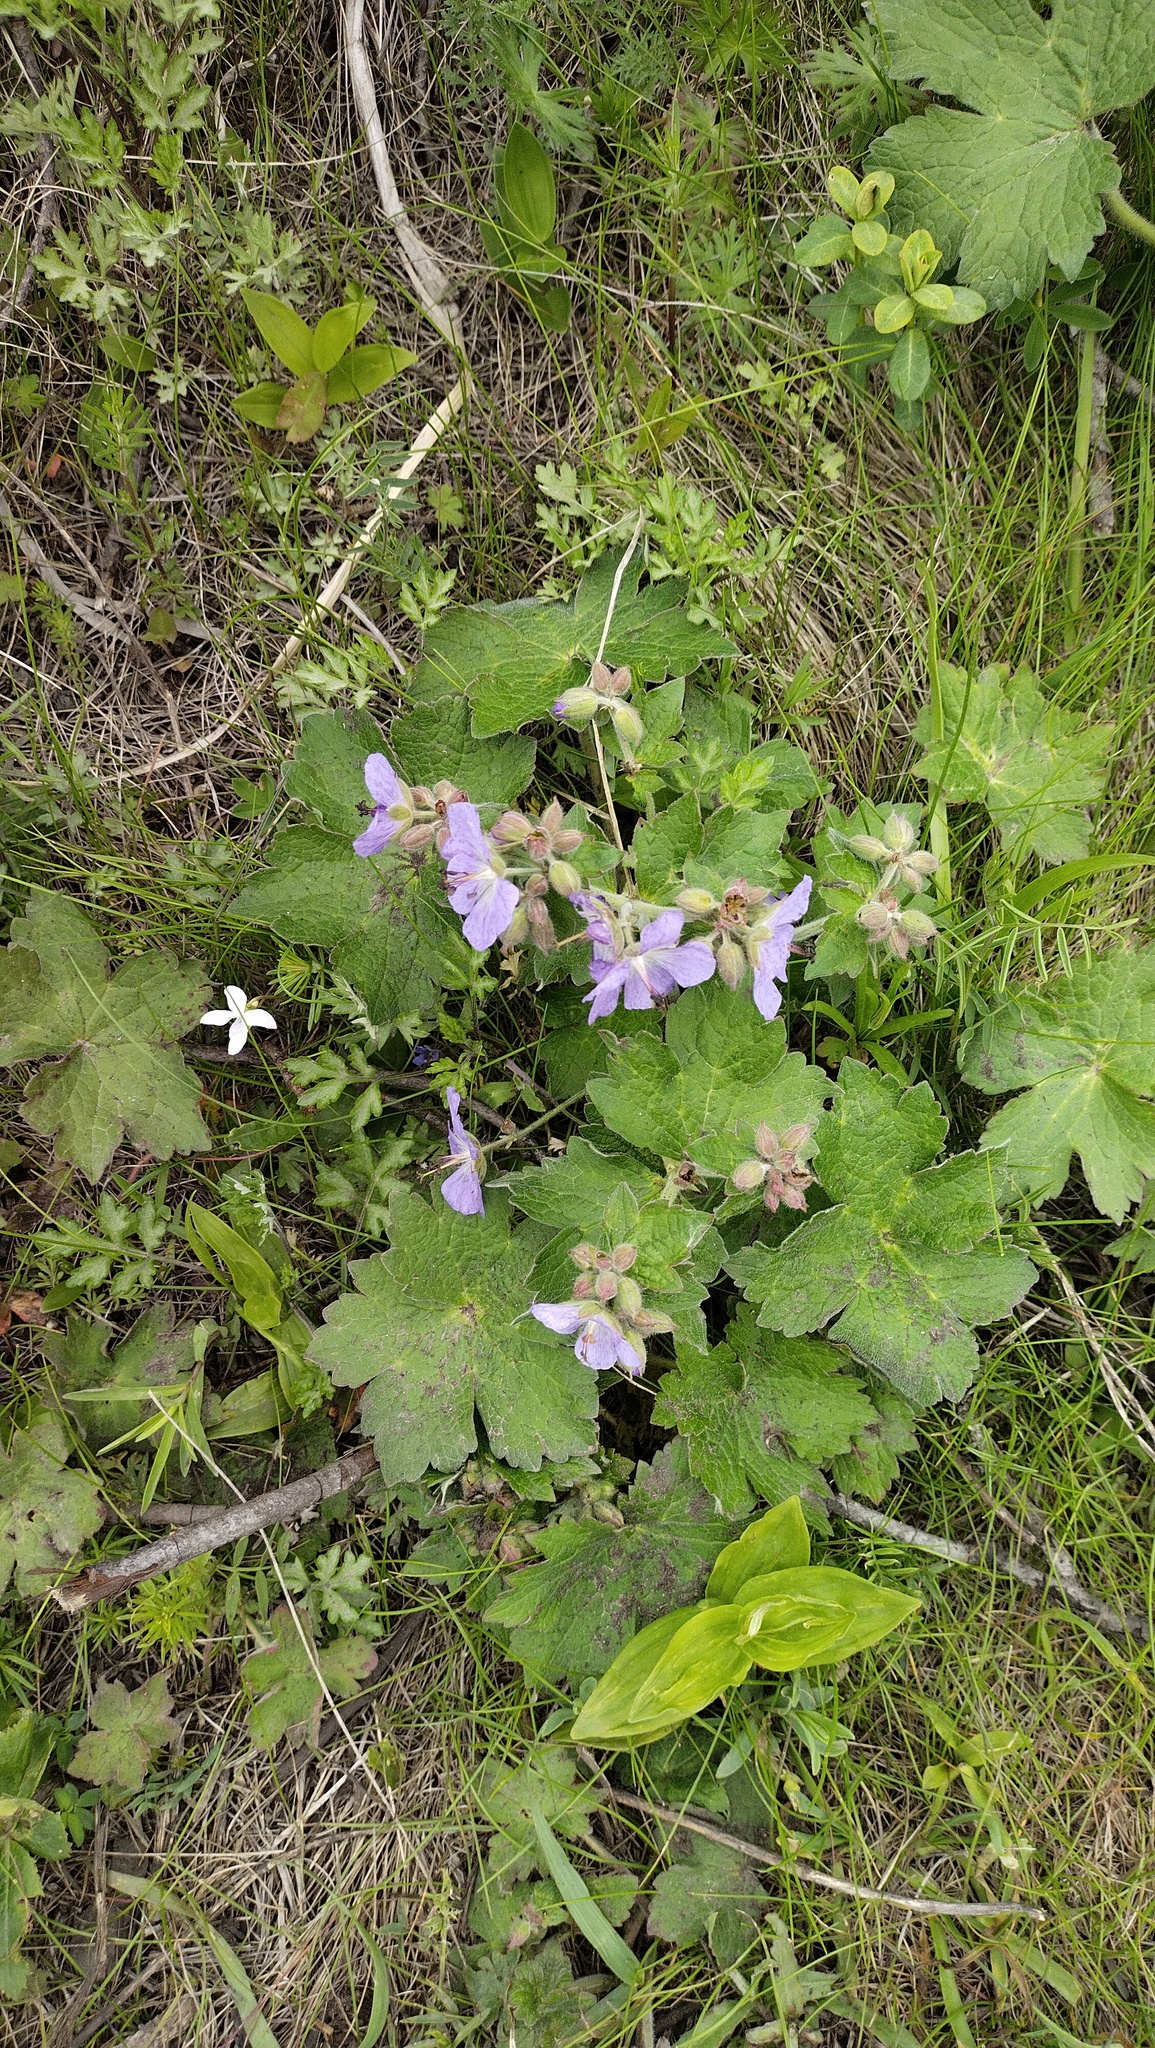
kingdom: Plantae
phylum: Tracheophyta
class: Magnoliopsida
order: Geraniales
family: Geraniaceae
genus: Geranium
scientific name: Geranium platyanthum
